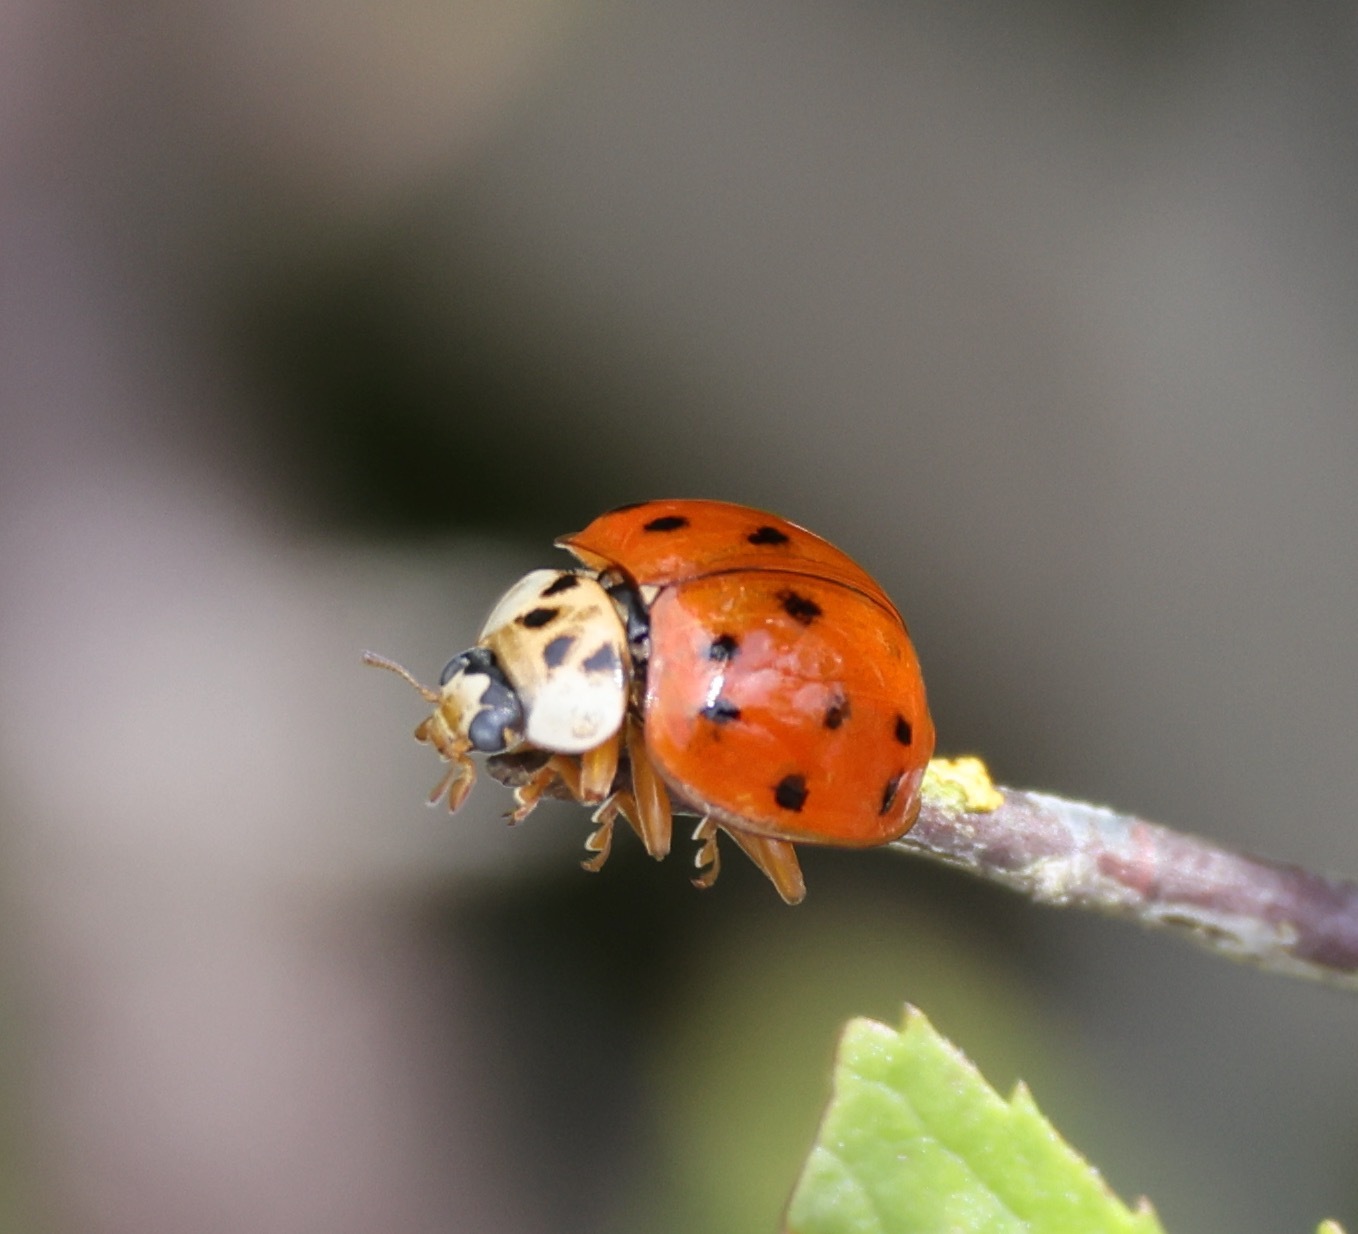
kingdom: Animalia
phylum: Arthropoda
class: Insecta
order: Coleoptera
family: Coccinellidae
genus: Harmonia
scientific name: Harmonia axyridis
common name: Harlequin ladybird
